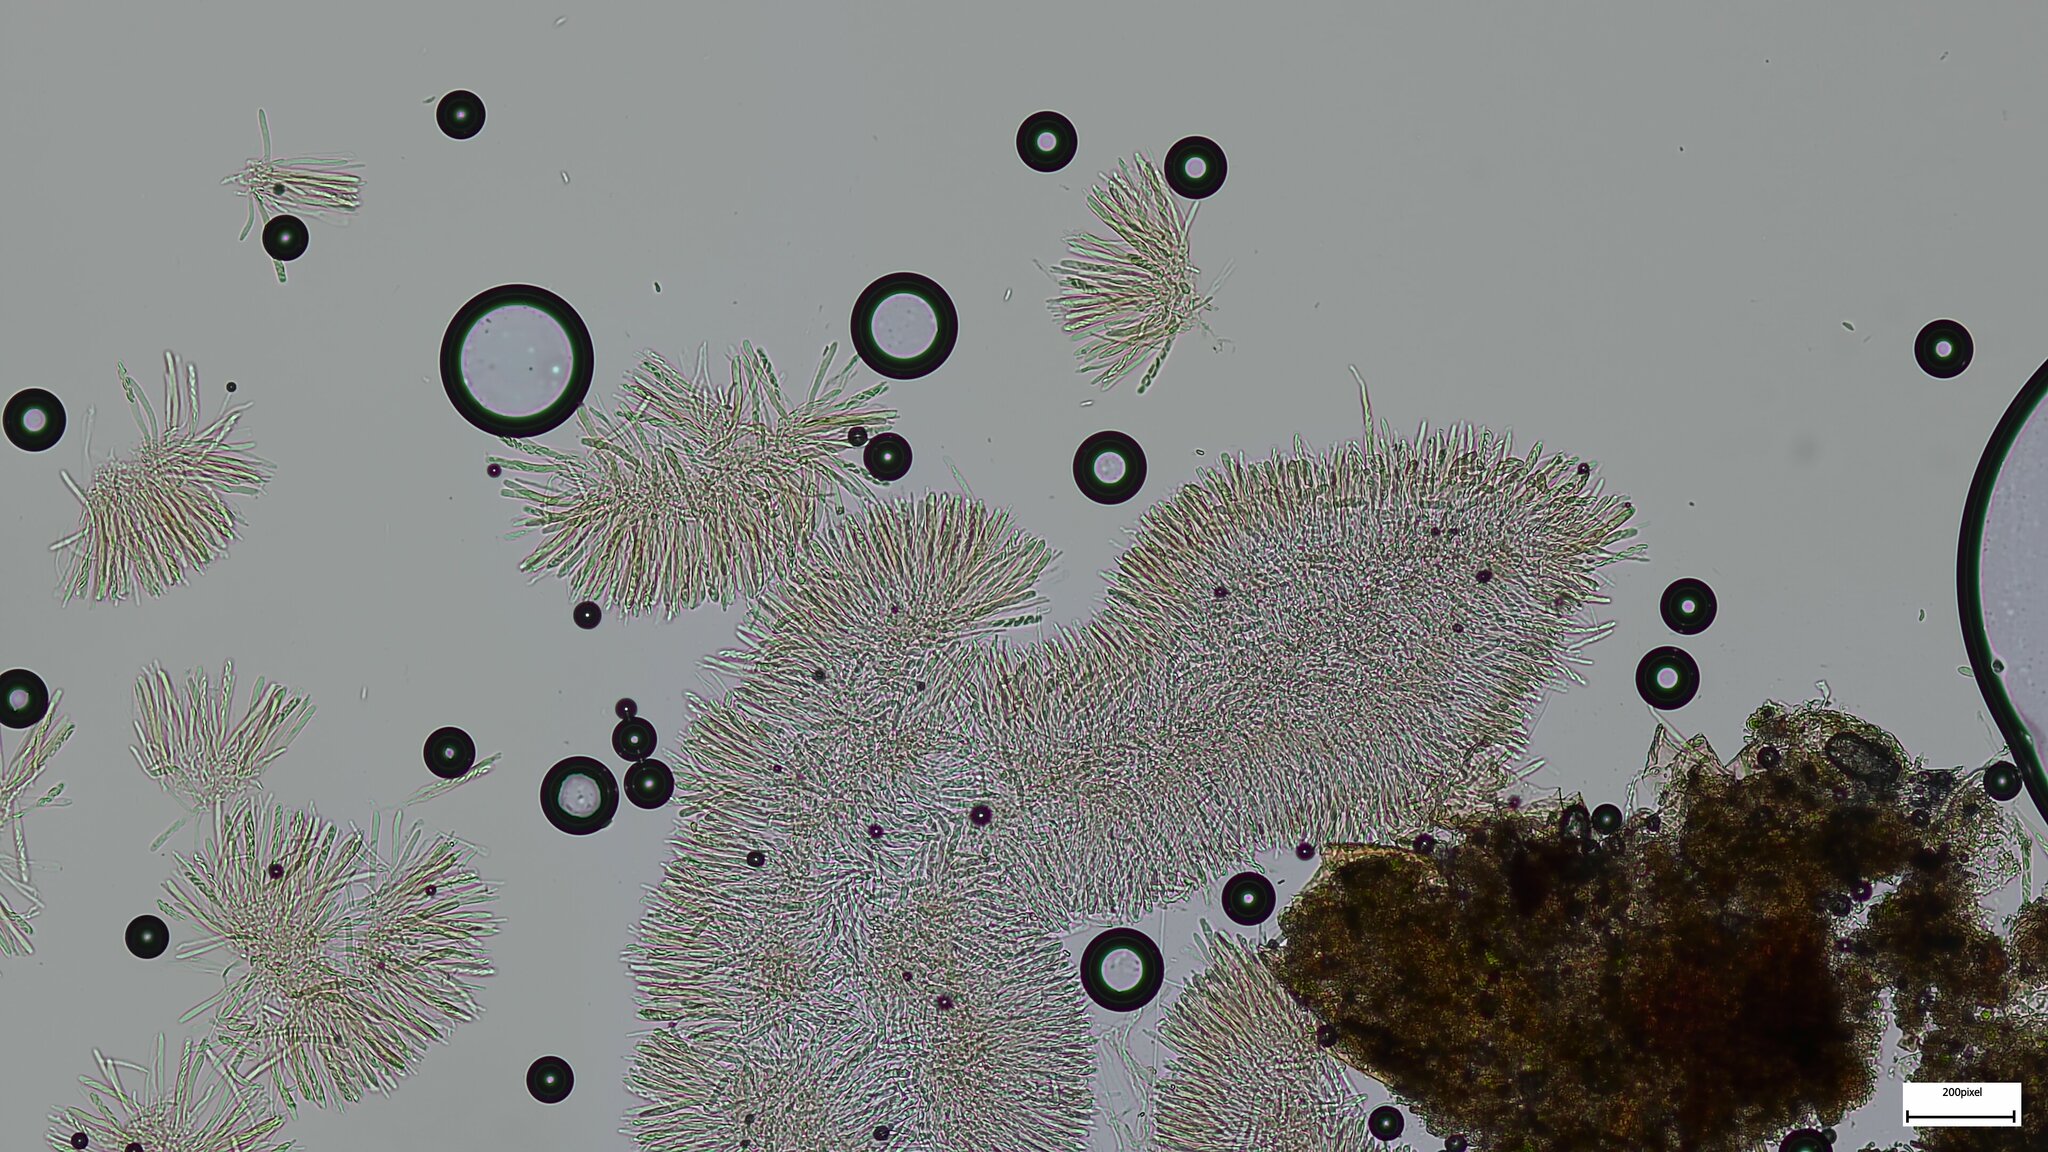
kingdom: Fungi
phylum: Ascomycota
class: Leotiomycetes
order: Helotiales
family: Sclerotiniaceae
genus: Scleromitrula
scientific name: Scleromitrula shiraiana
